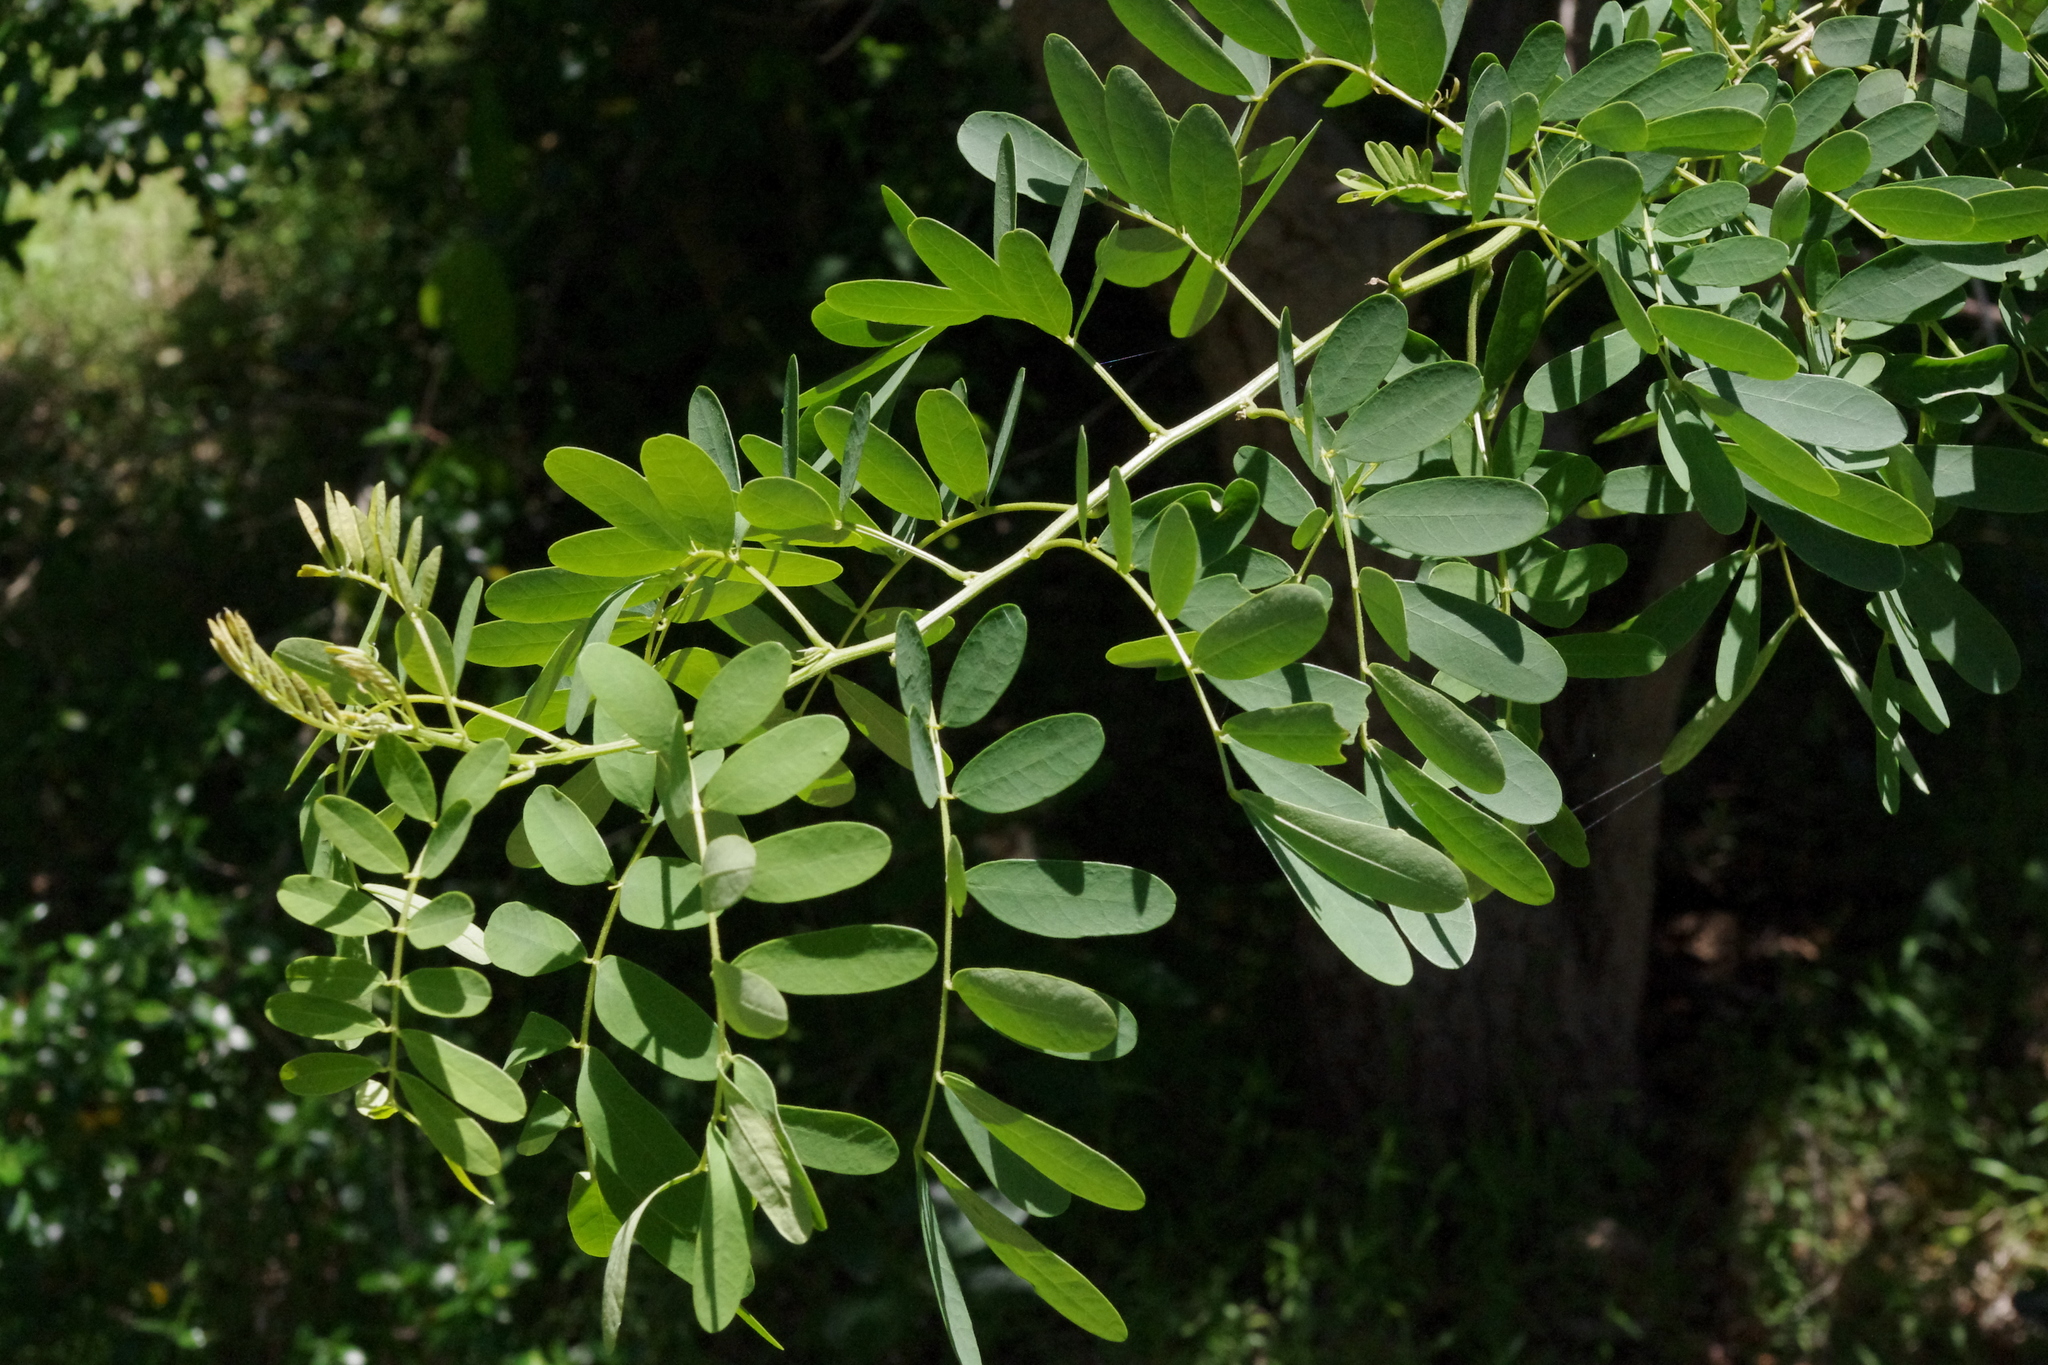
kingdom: Plantae
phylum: Tracheophyta
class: Magnoliopsida
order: Fabales
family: Fabaceae
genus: Senna
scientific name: Senna gaudichaudii
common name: Climbing cassia
